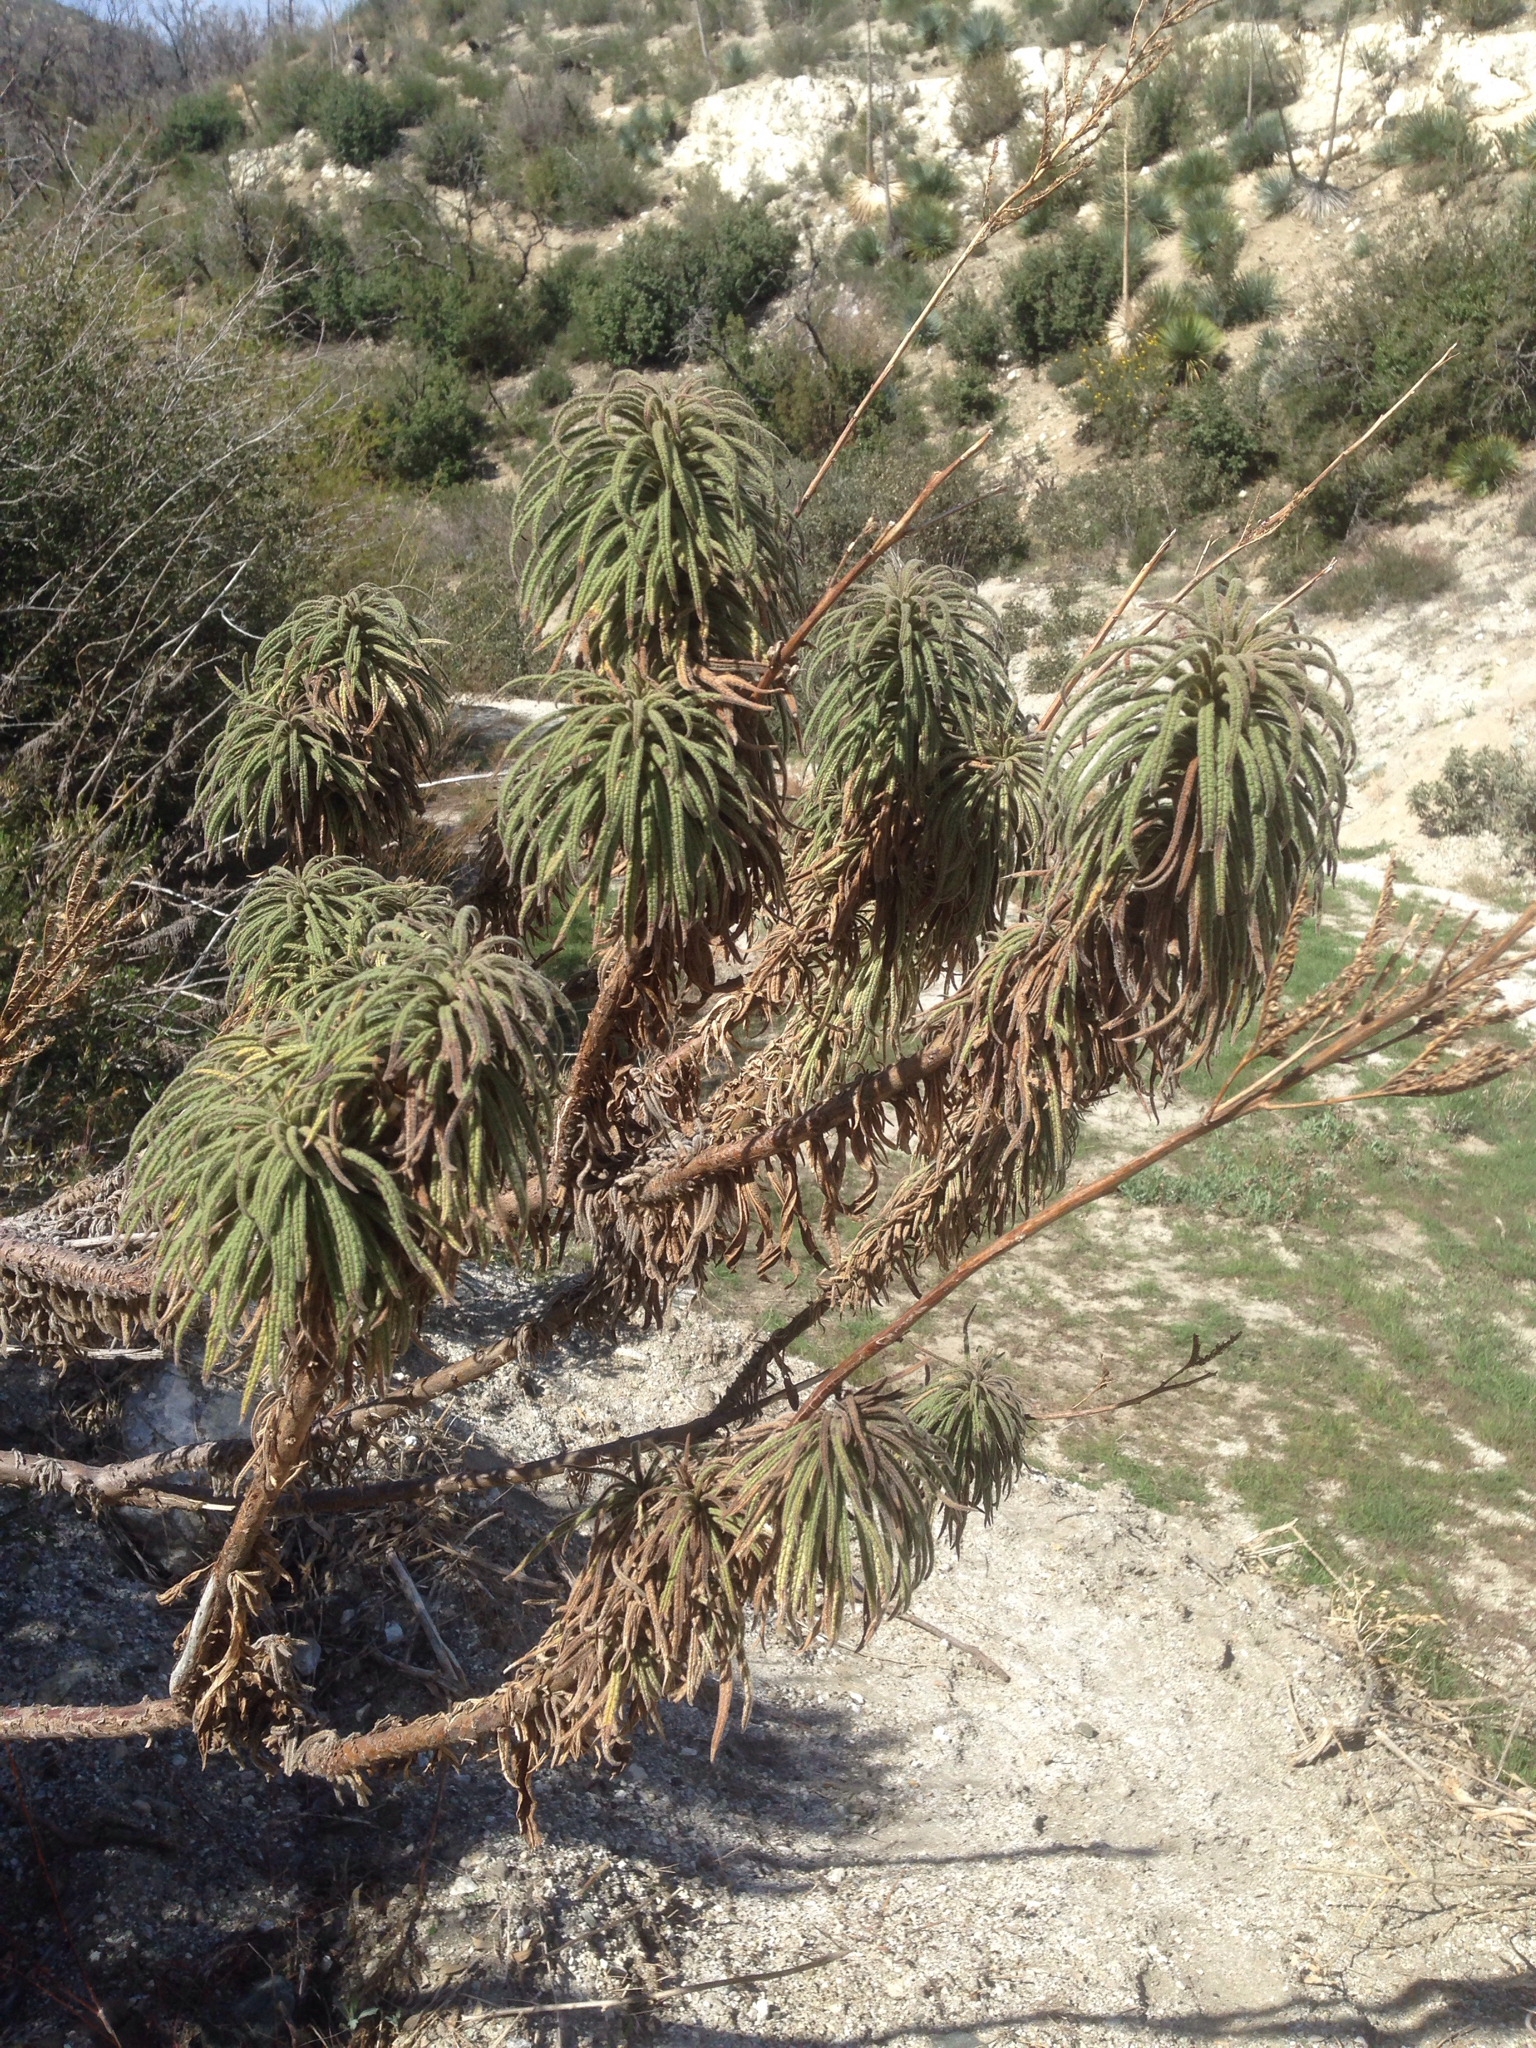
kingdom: Plantae
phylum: Tracheophyta
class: Magnoliopsida
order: Boraginales
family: Namaceae
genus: Turricula
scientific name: Turricula parryi
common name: Poodle-dog-bush
